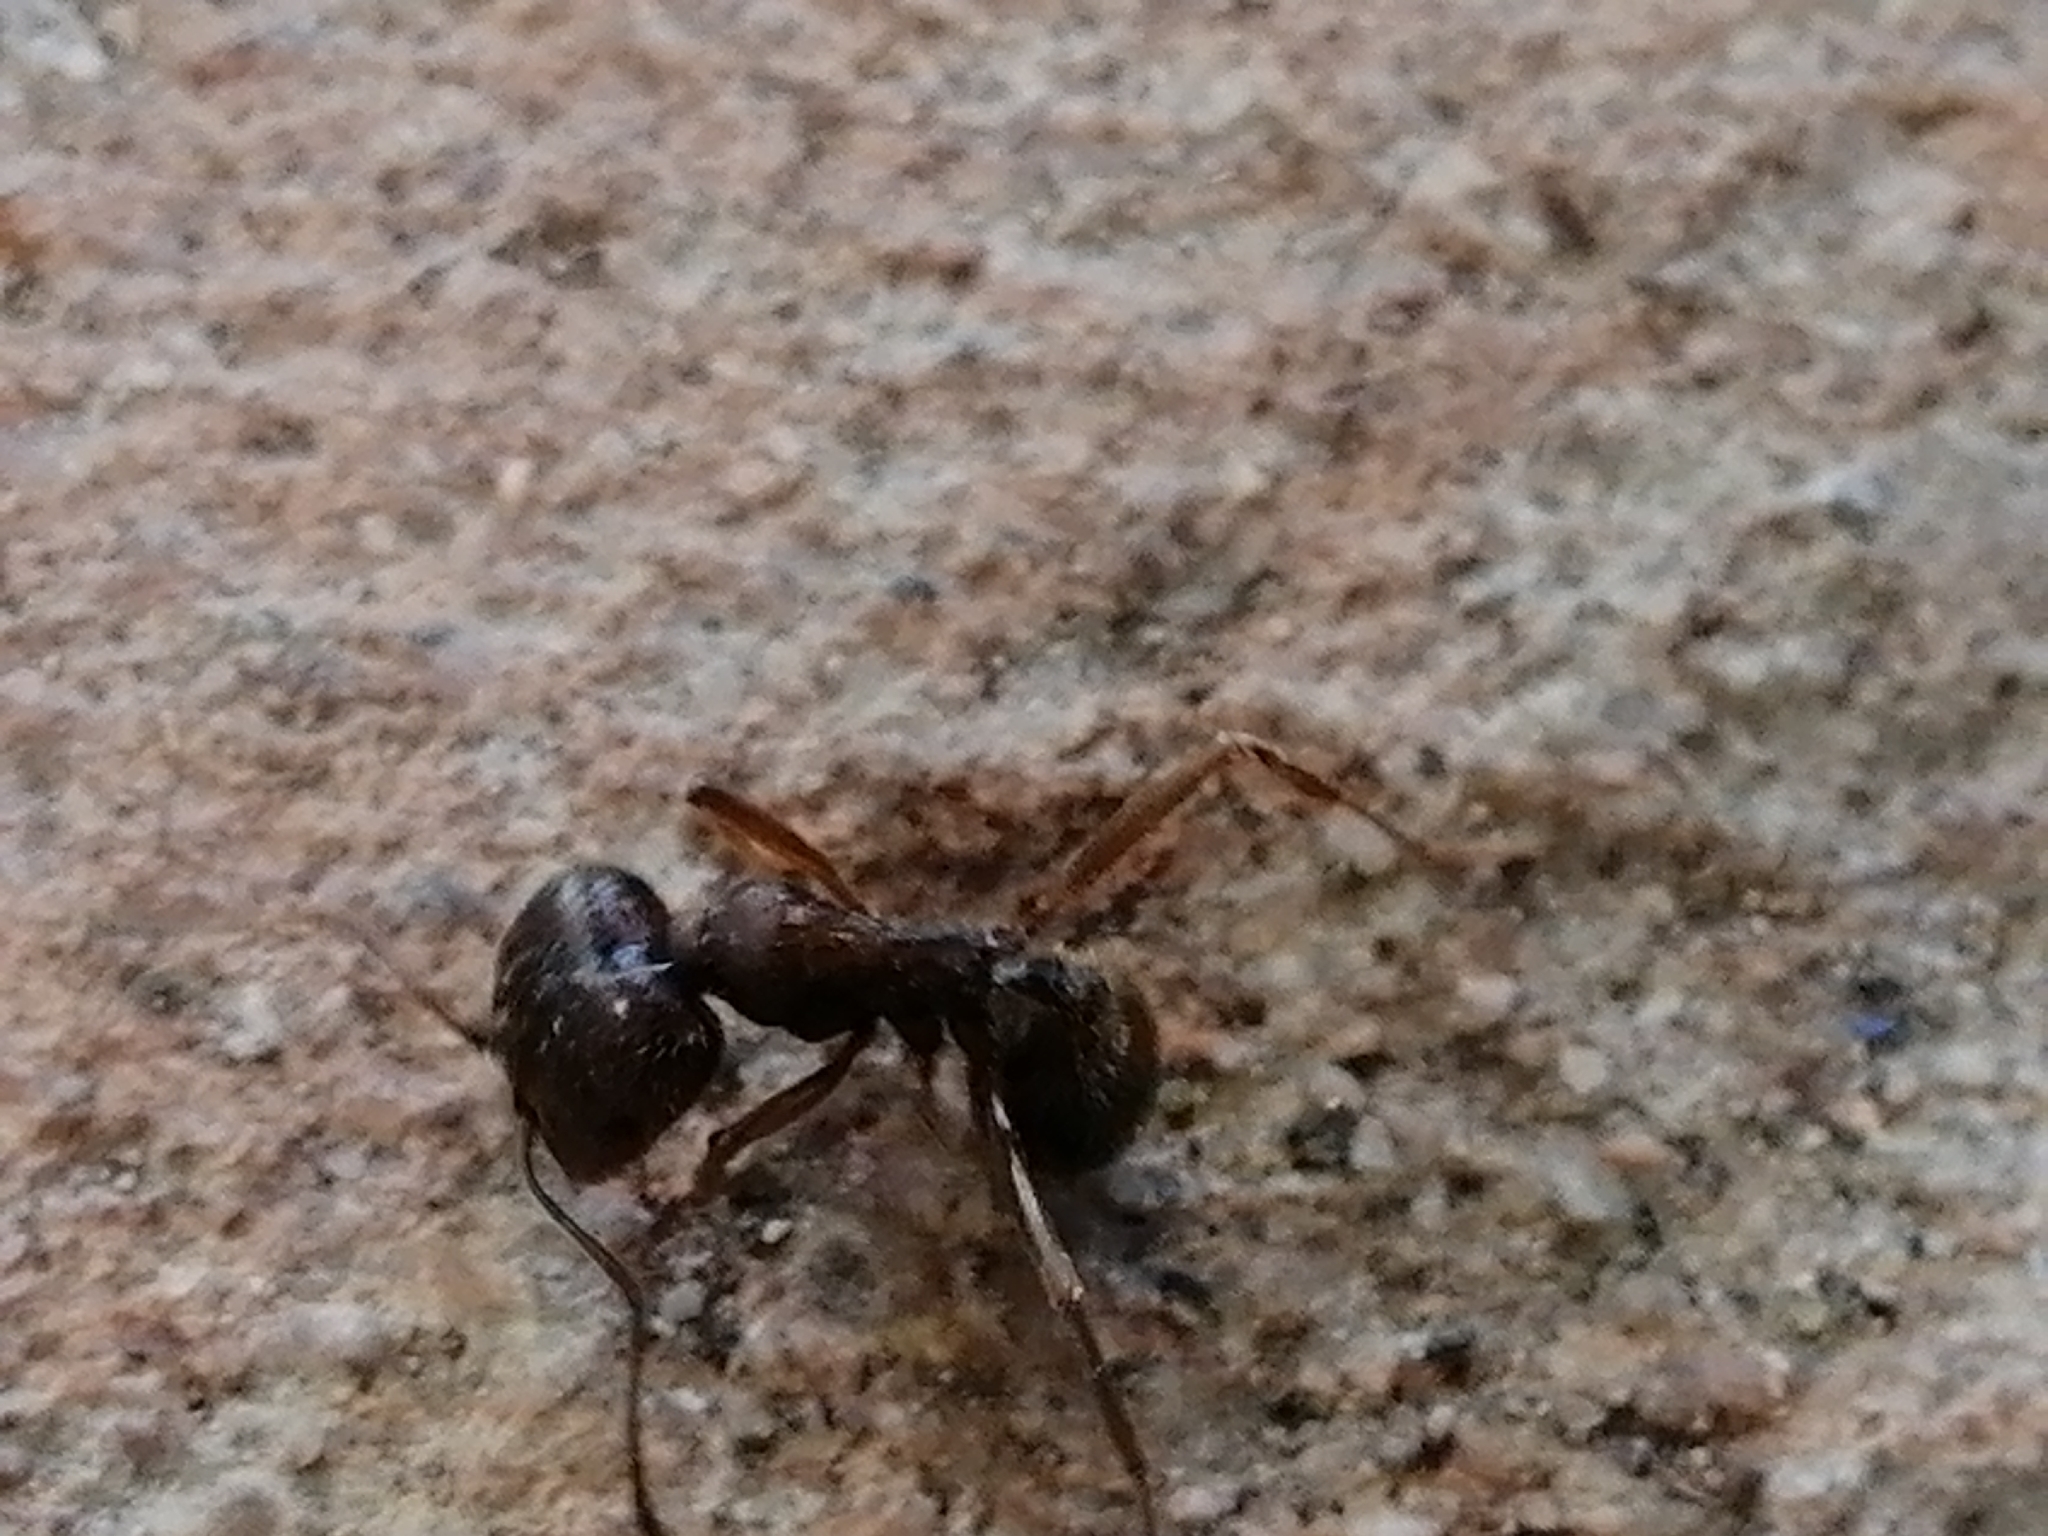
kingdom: Animalia
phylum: Arthropoda
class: Insecta
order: Hymenoptera
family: Formicidae
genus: Messor
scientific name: Messor ibericus
